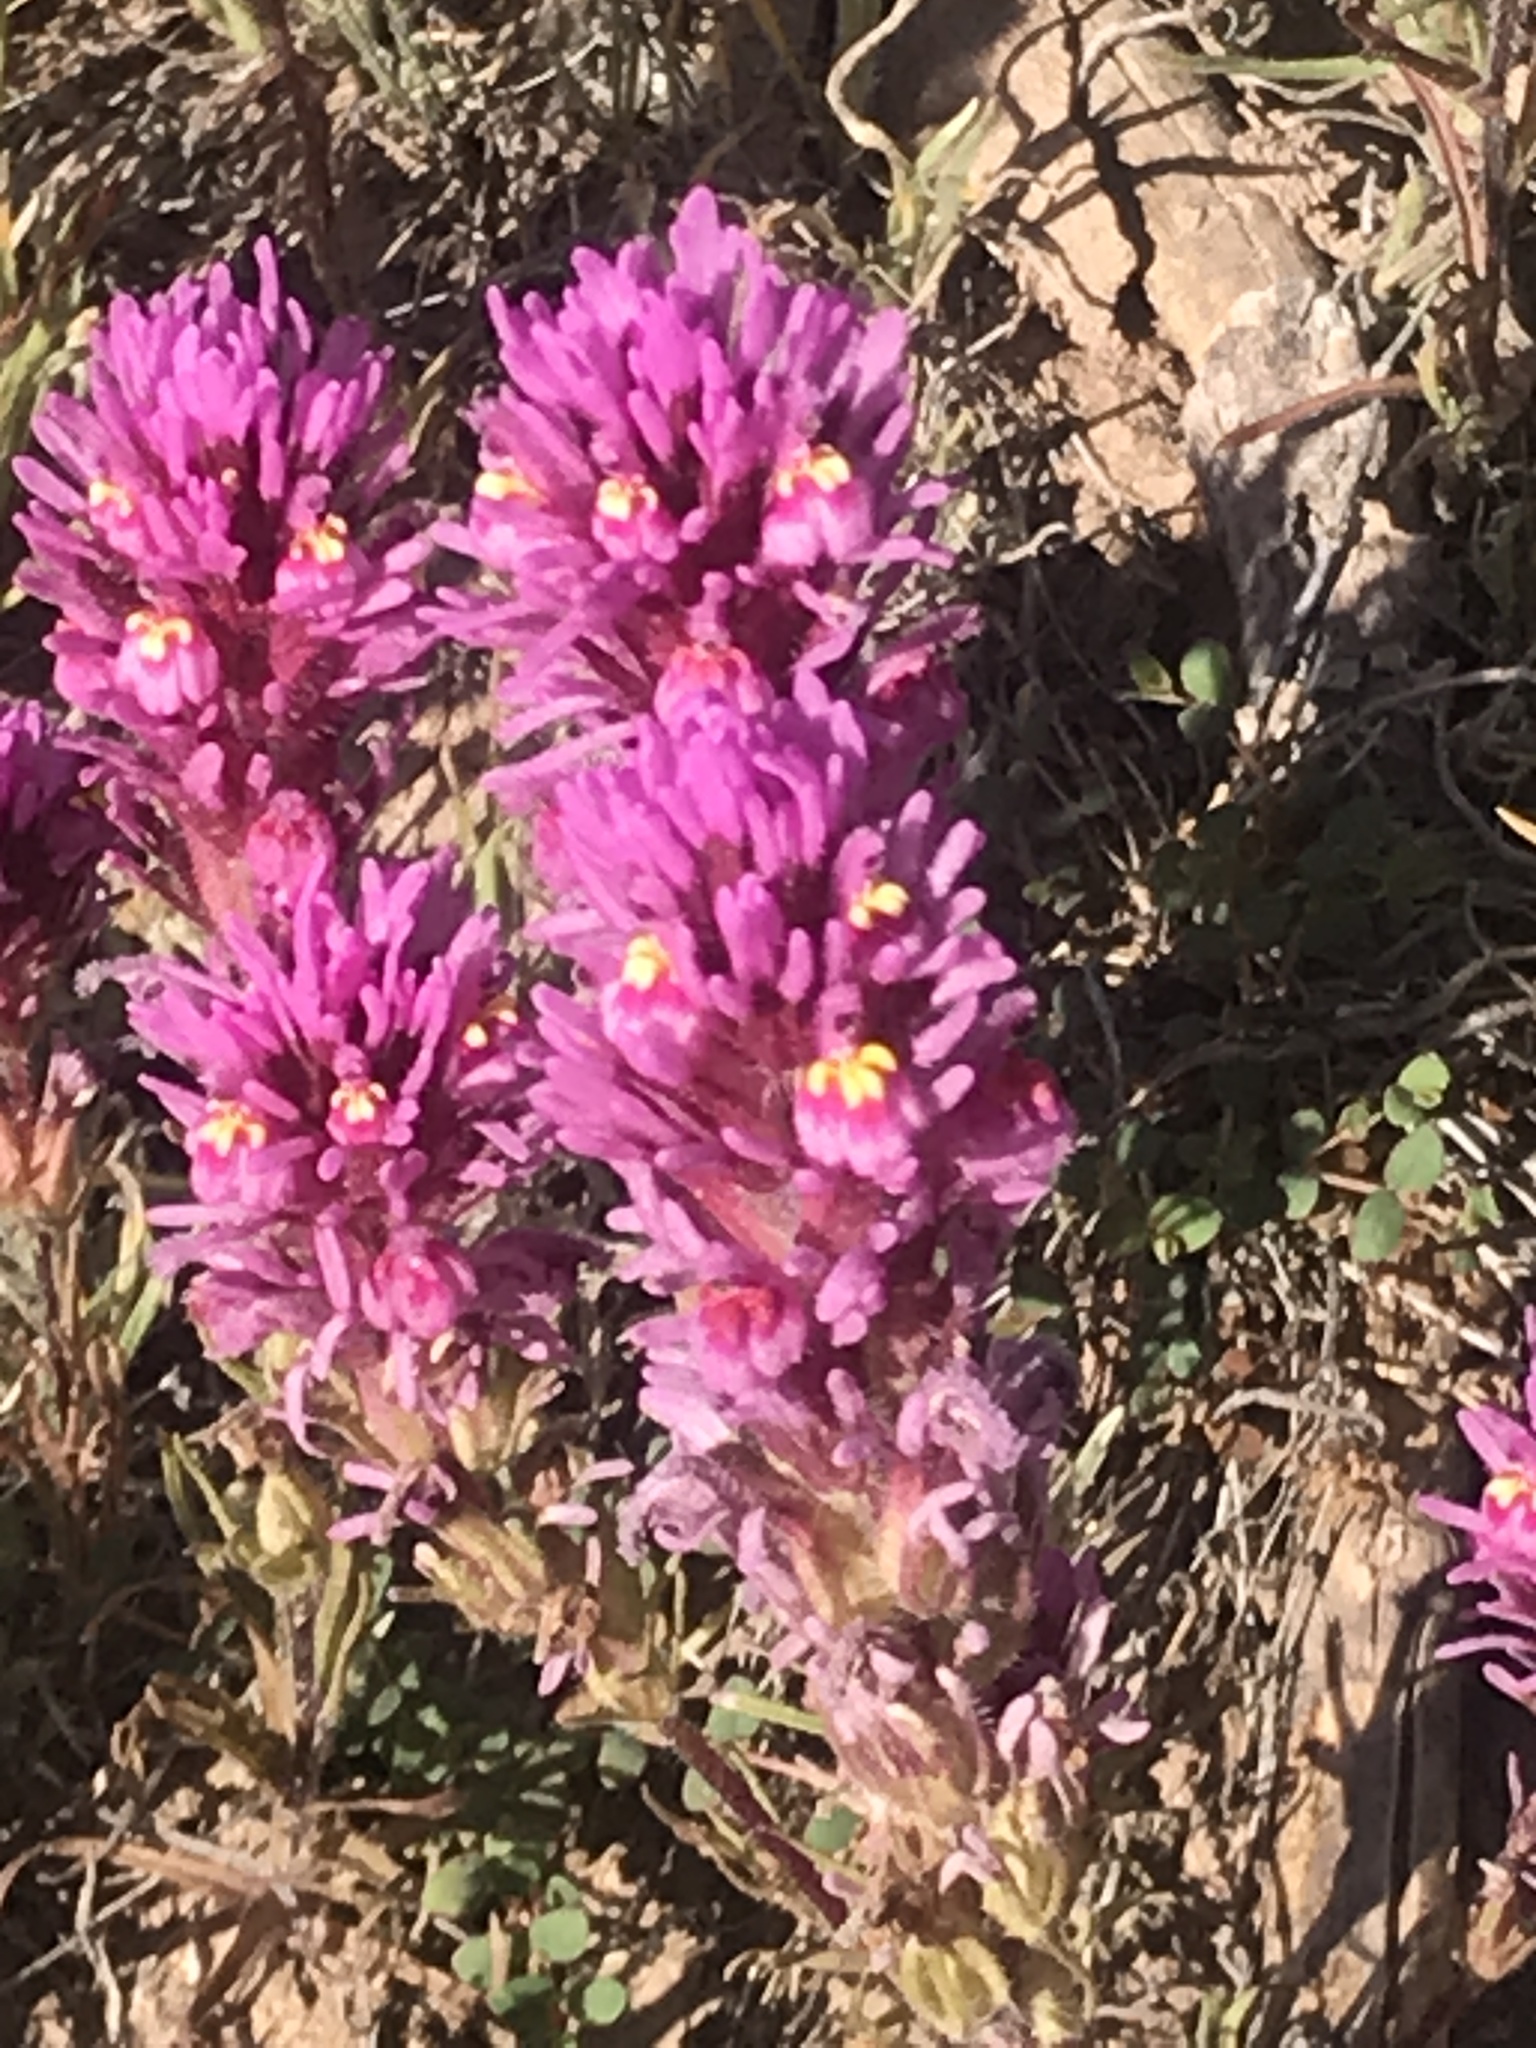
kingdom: Plantae
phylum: Tracheophyta
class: Magnoliopsida
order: Lamiales
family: Orobanchaceae
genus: Castilleja
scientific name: Castilleja exserta
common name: Purple owl-clover
